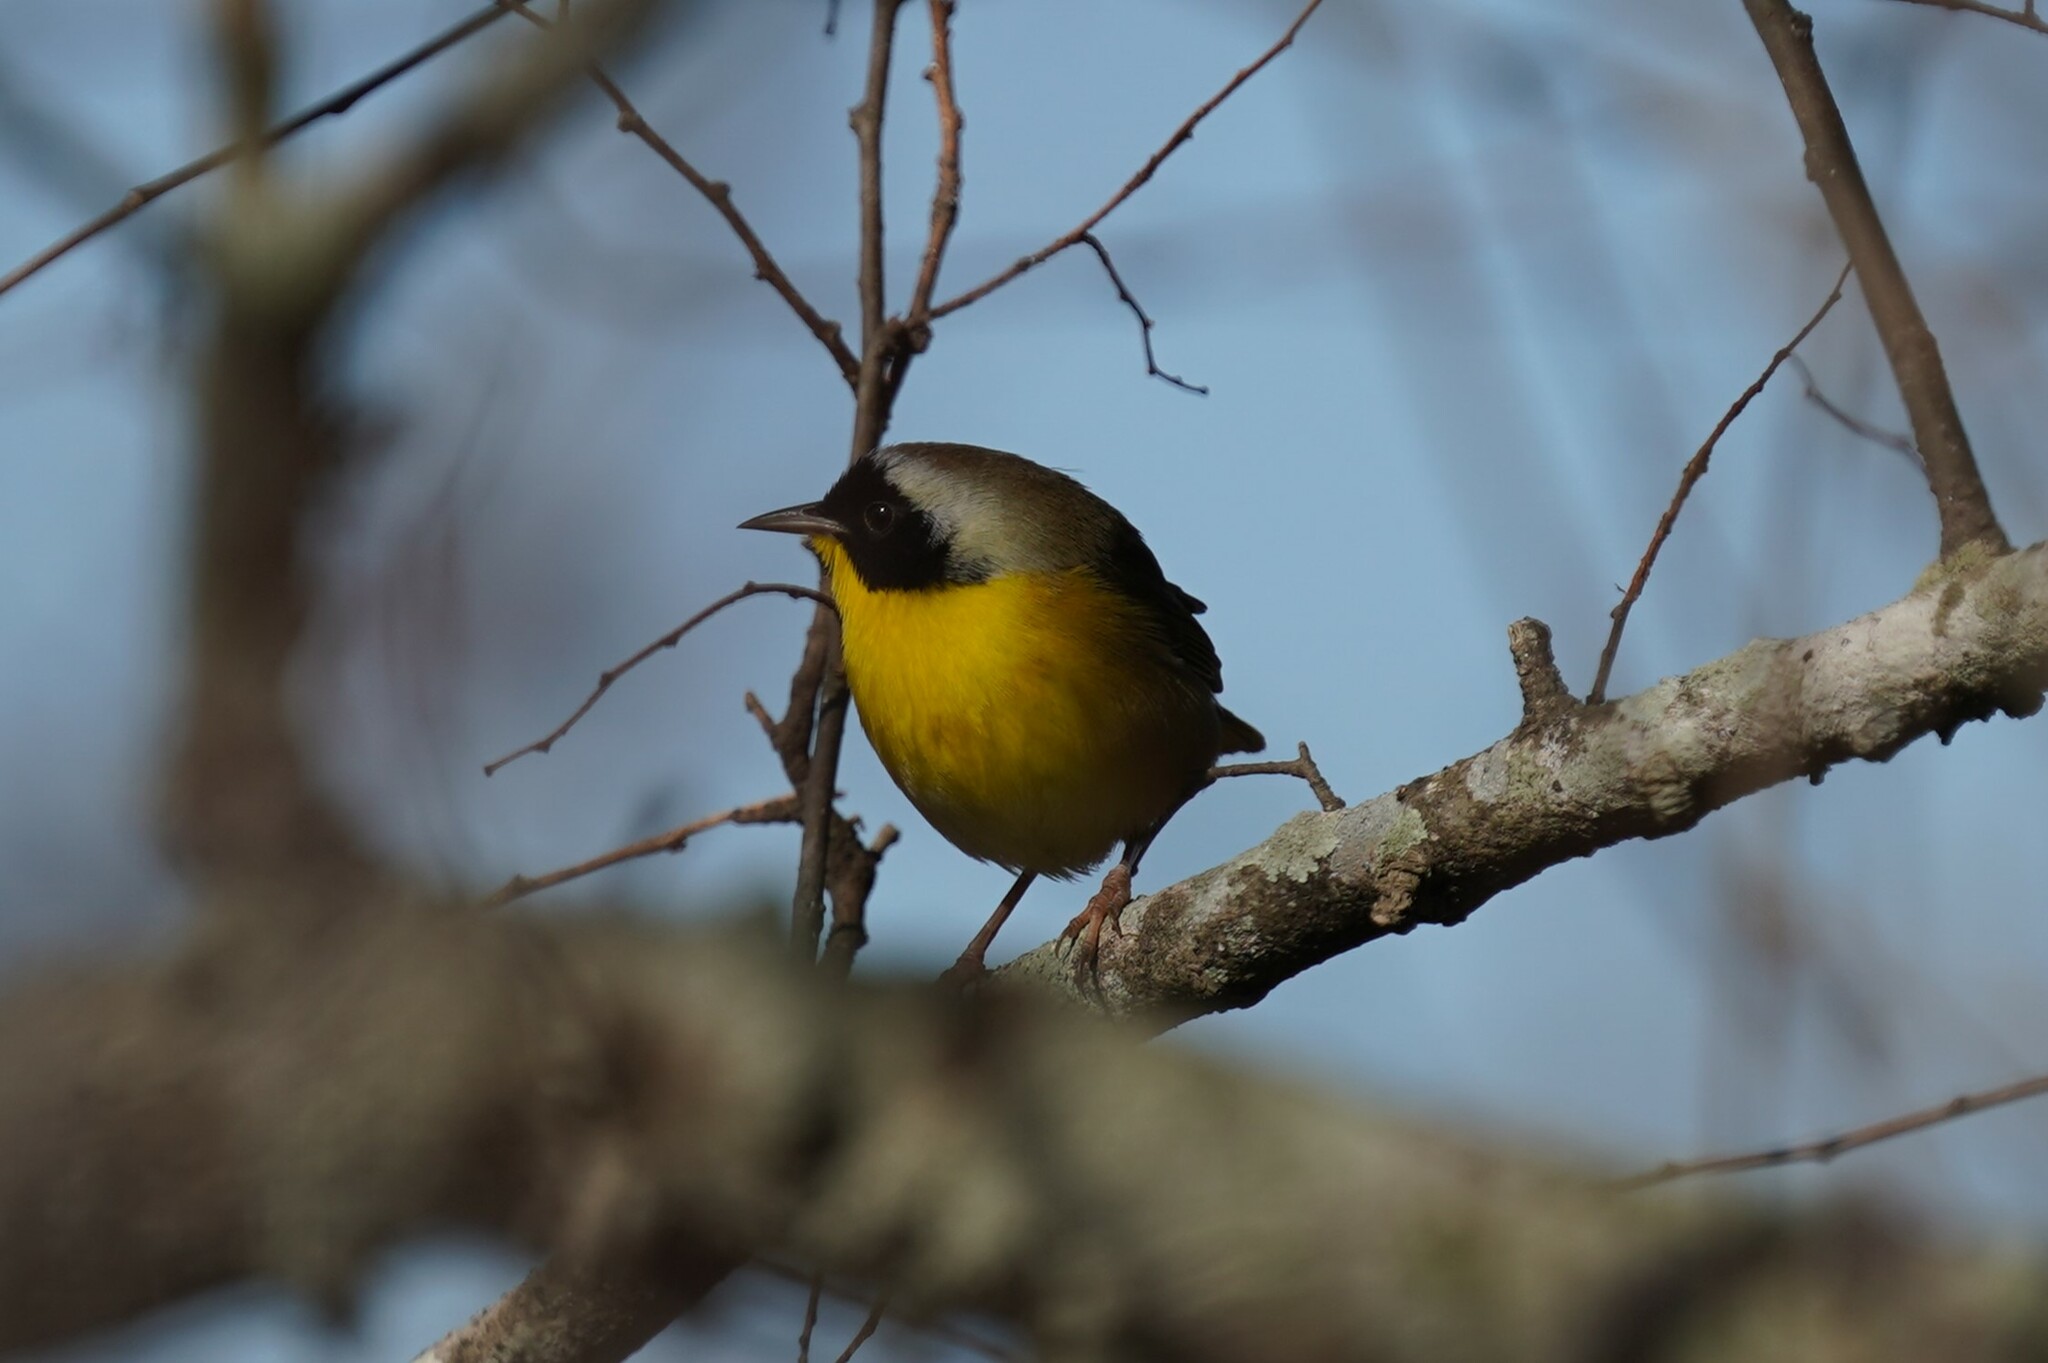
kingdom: Animalia
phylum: Chordata
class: Aves
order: Passeriformes
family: Parulidae
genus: Geothlypis
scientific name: Geothlypis trichas
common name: Common yellowthroat
